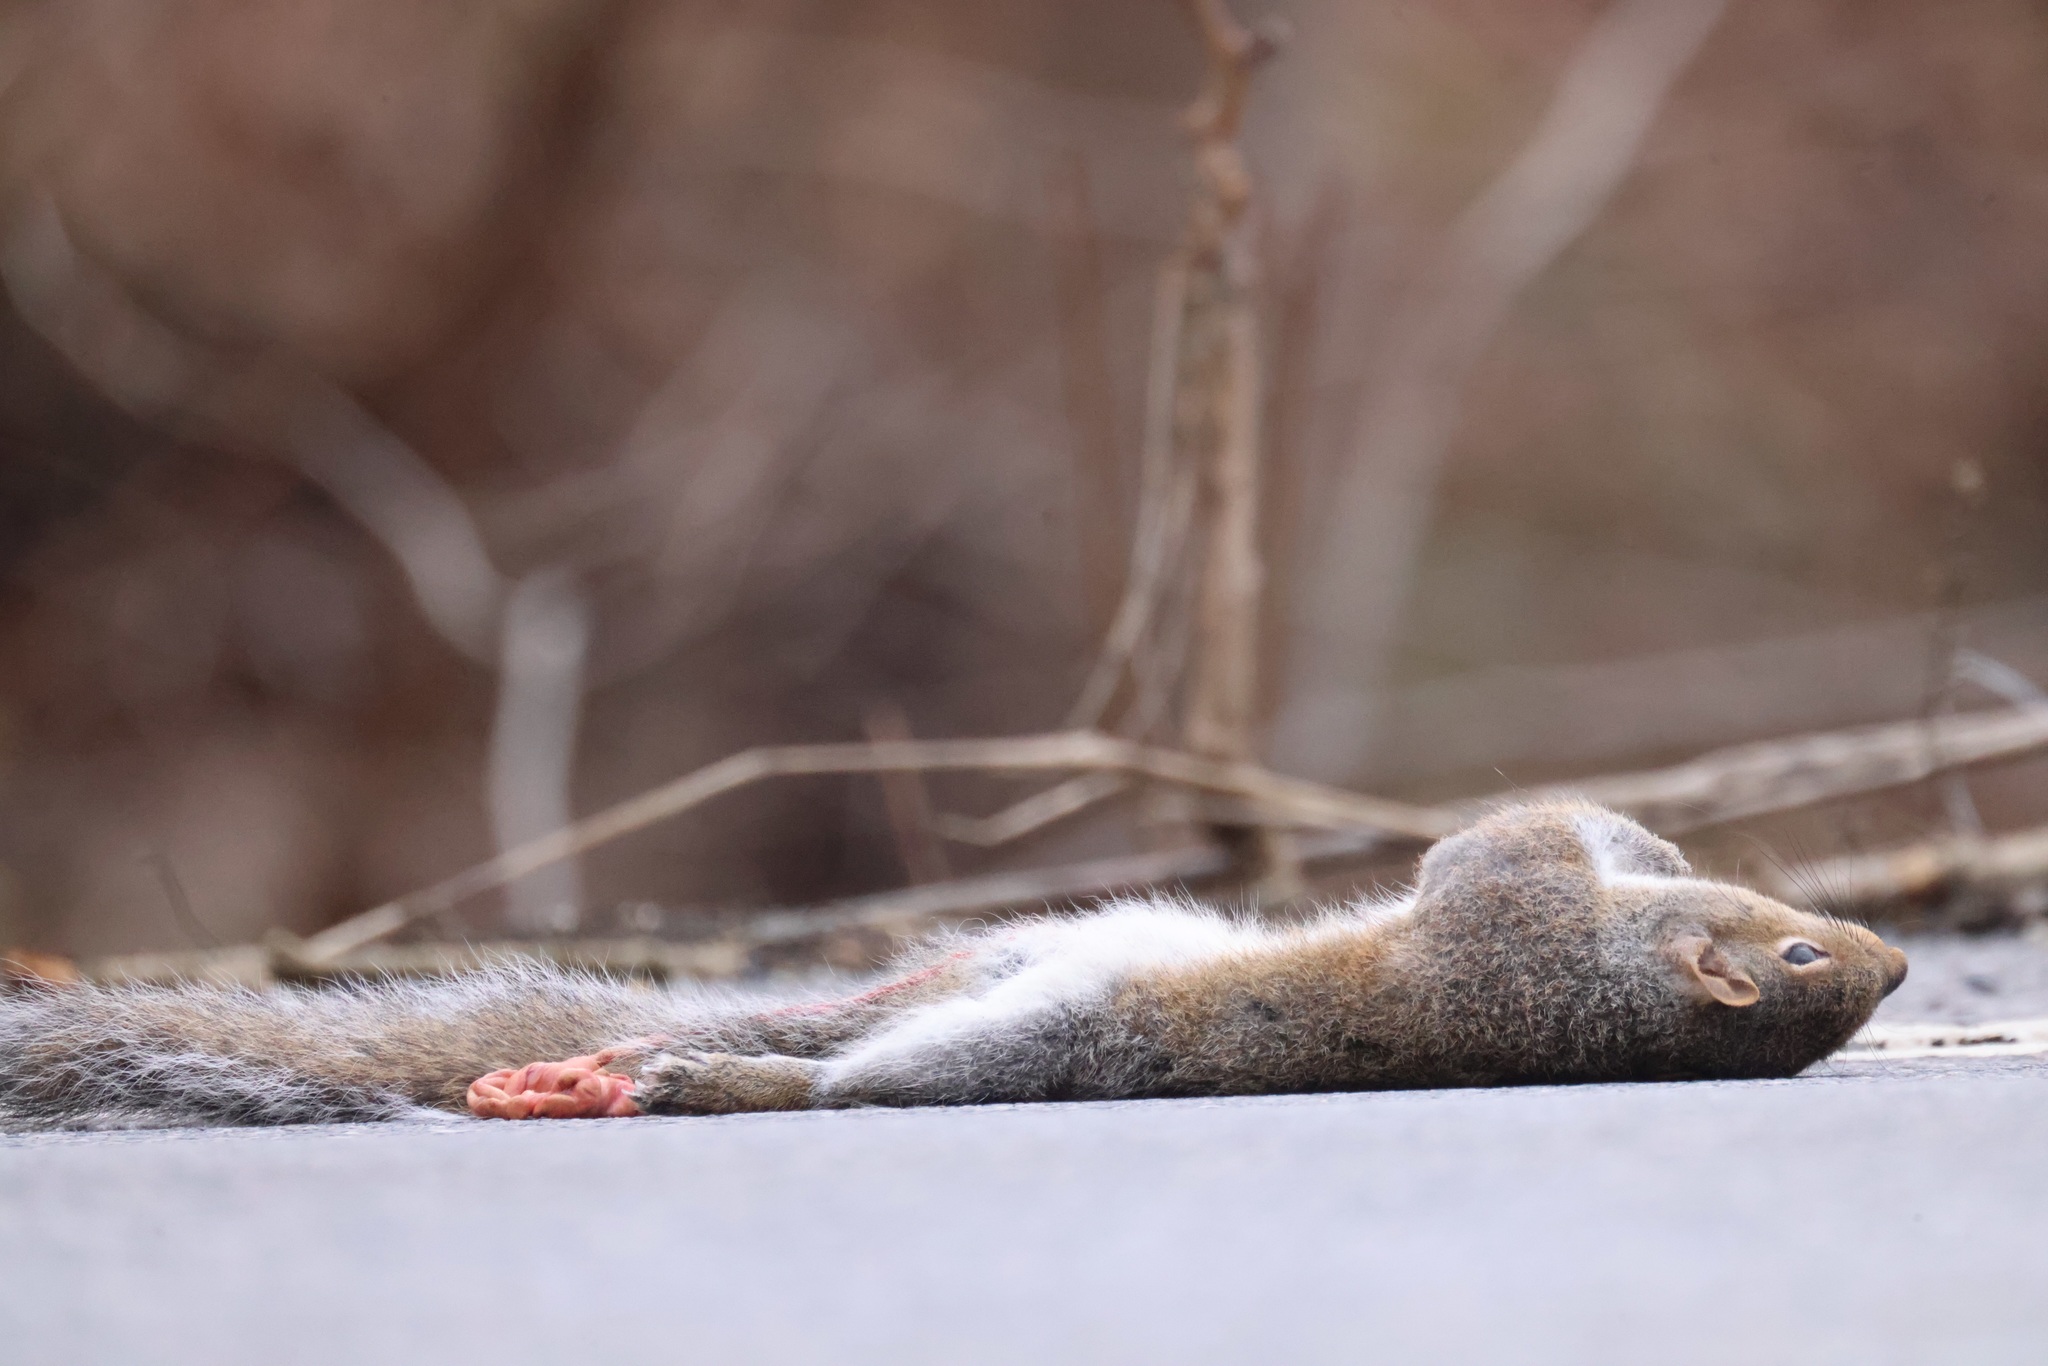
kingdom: Animalia
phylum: Chordata
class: Mammalia
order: Rodentia
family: Sciuridae
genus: Sciurus
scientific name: Sciurus carolinensis
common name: Eastern gray squirrel
